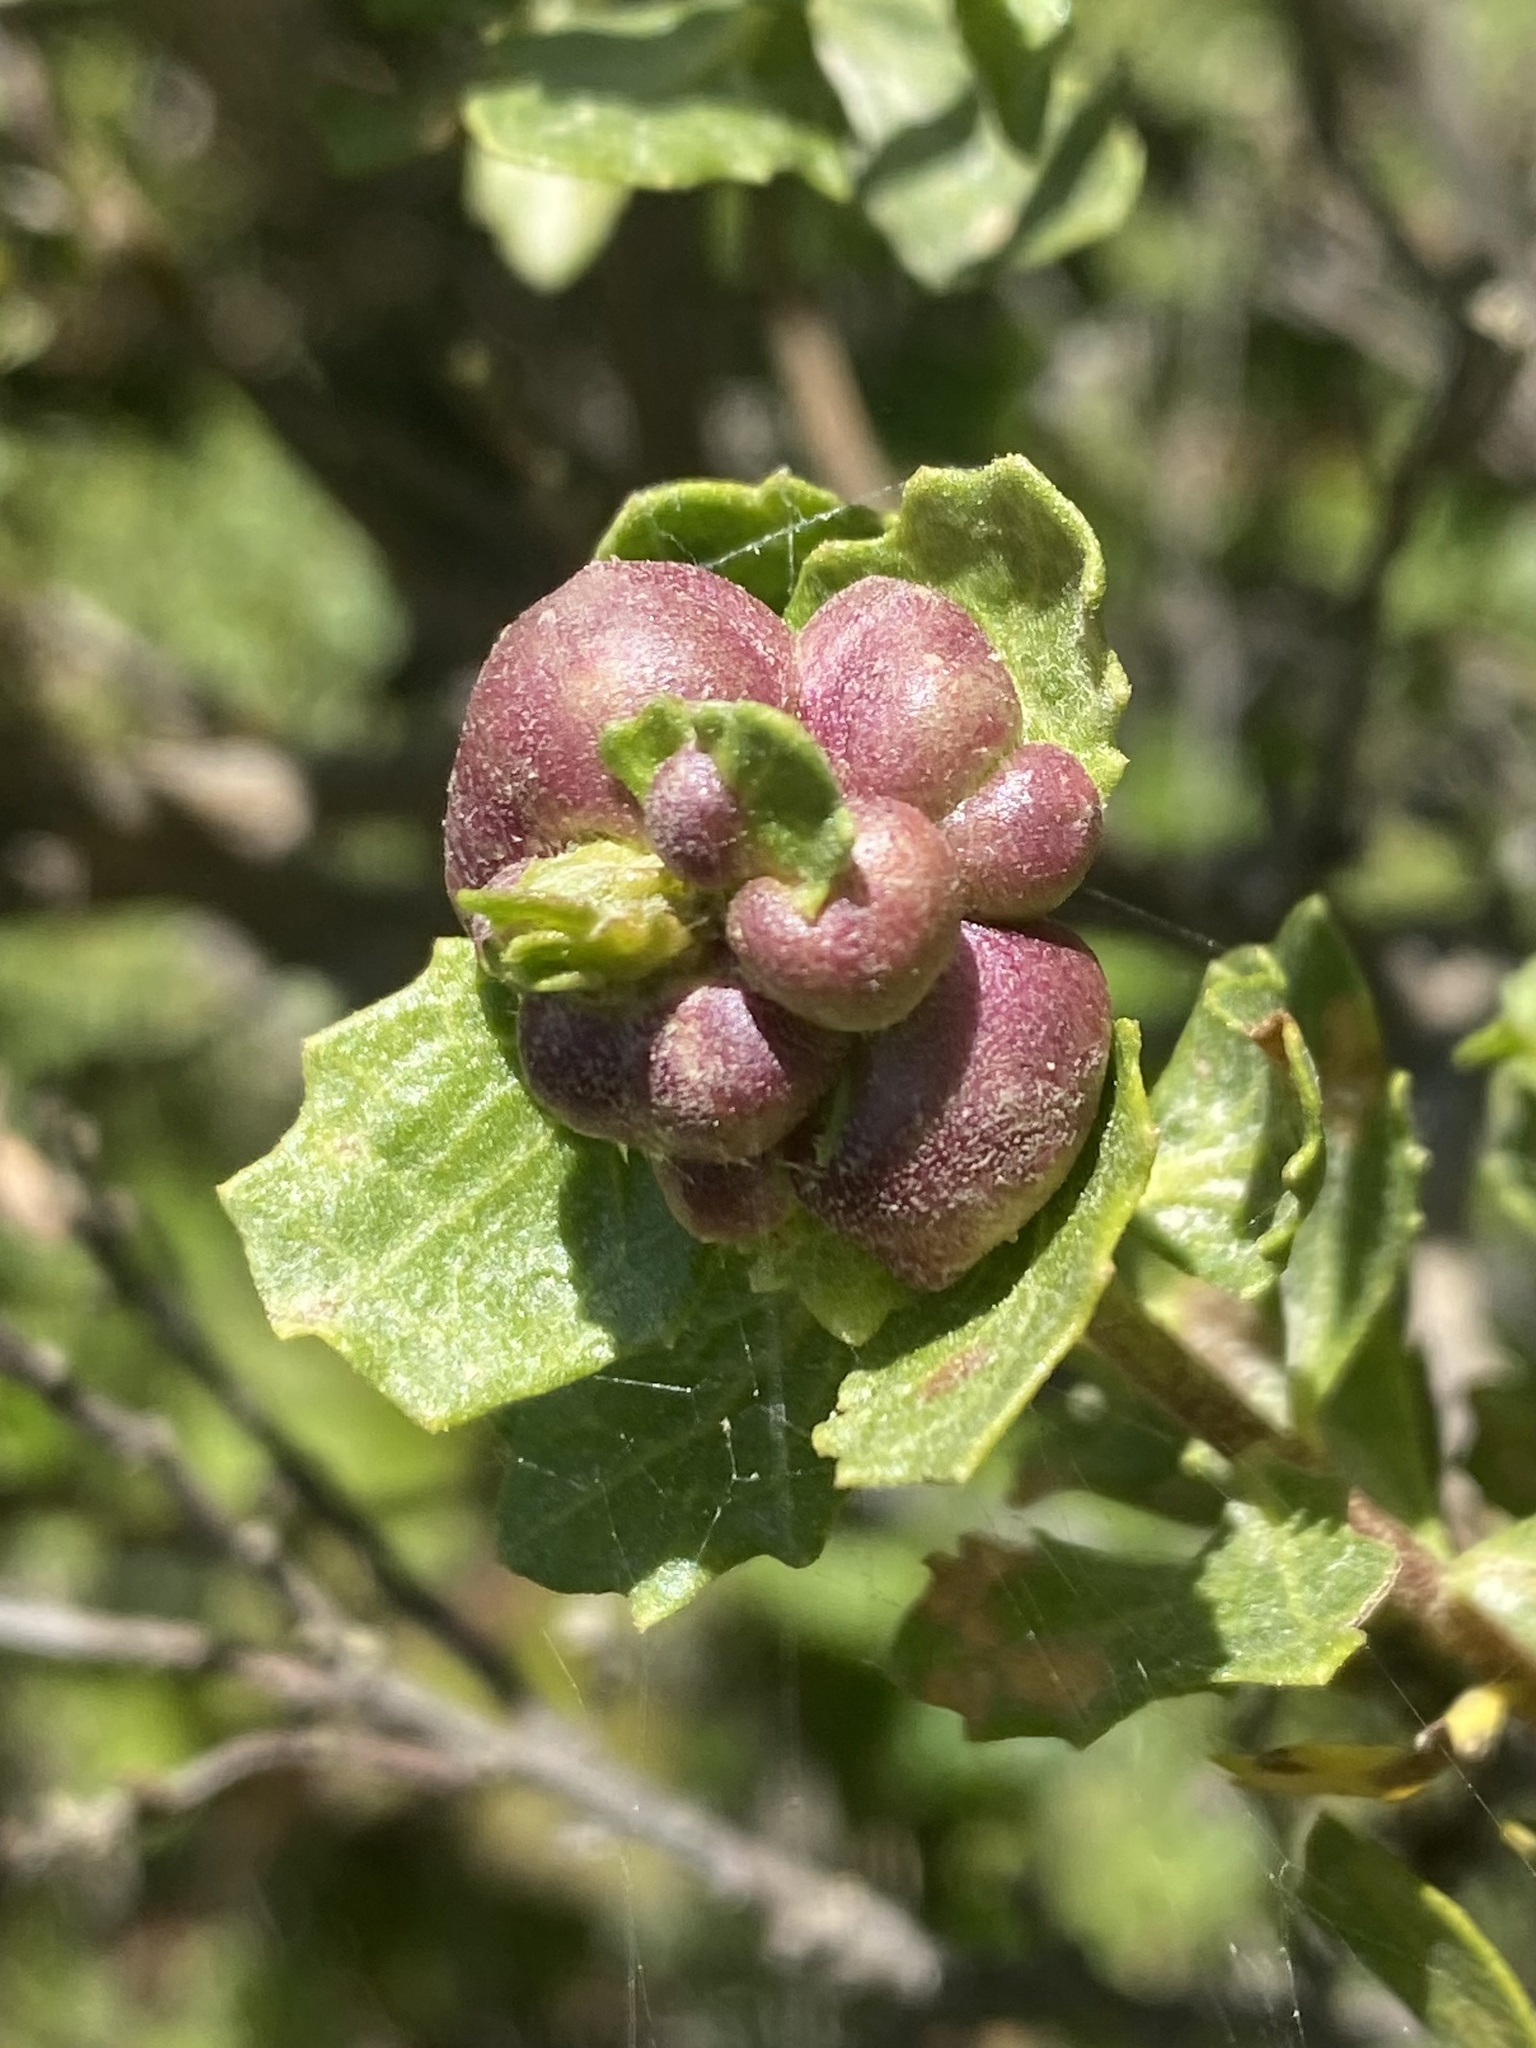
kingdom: Animalia
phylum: Arthropoda
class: Insecta
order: Diptera
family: Cecidomyiidae
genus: Rhopalomyia
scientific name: Rhopalomyia californica
